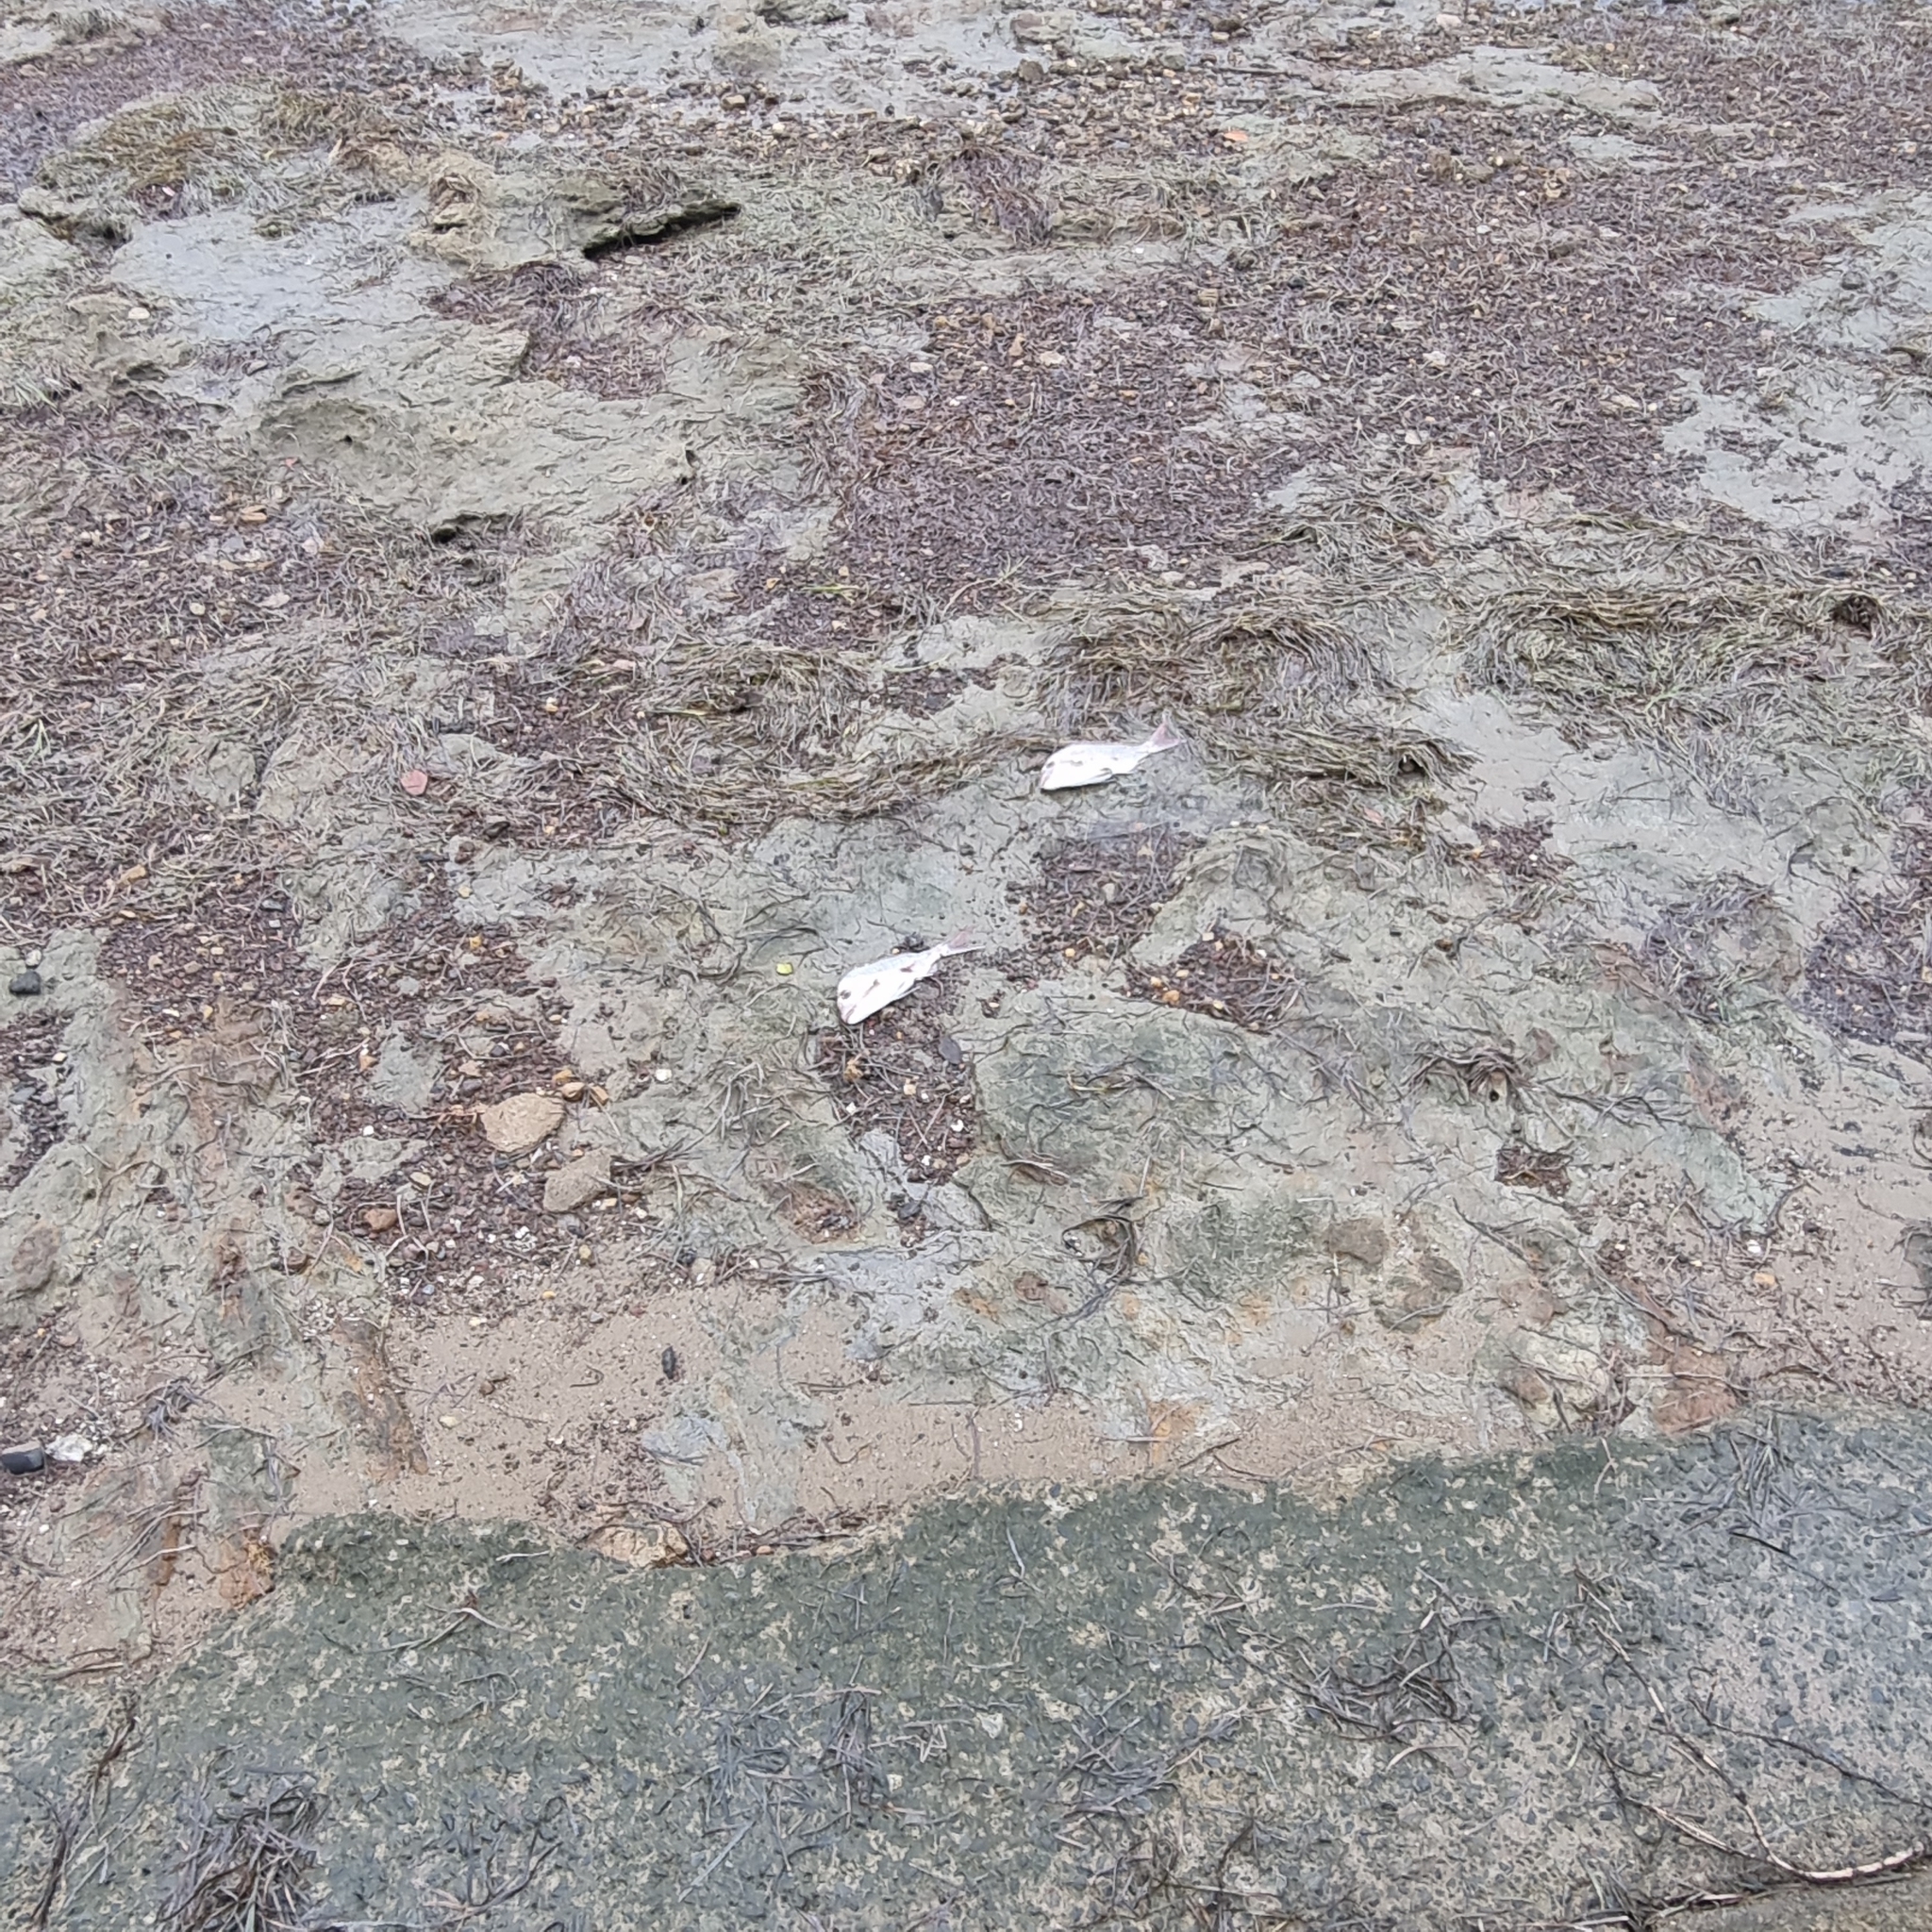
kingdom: Animalia
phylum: Chordata
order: Perciformes
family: Sparidae
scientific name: Sparidae
